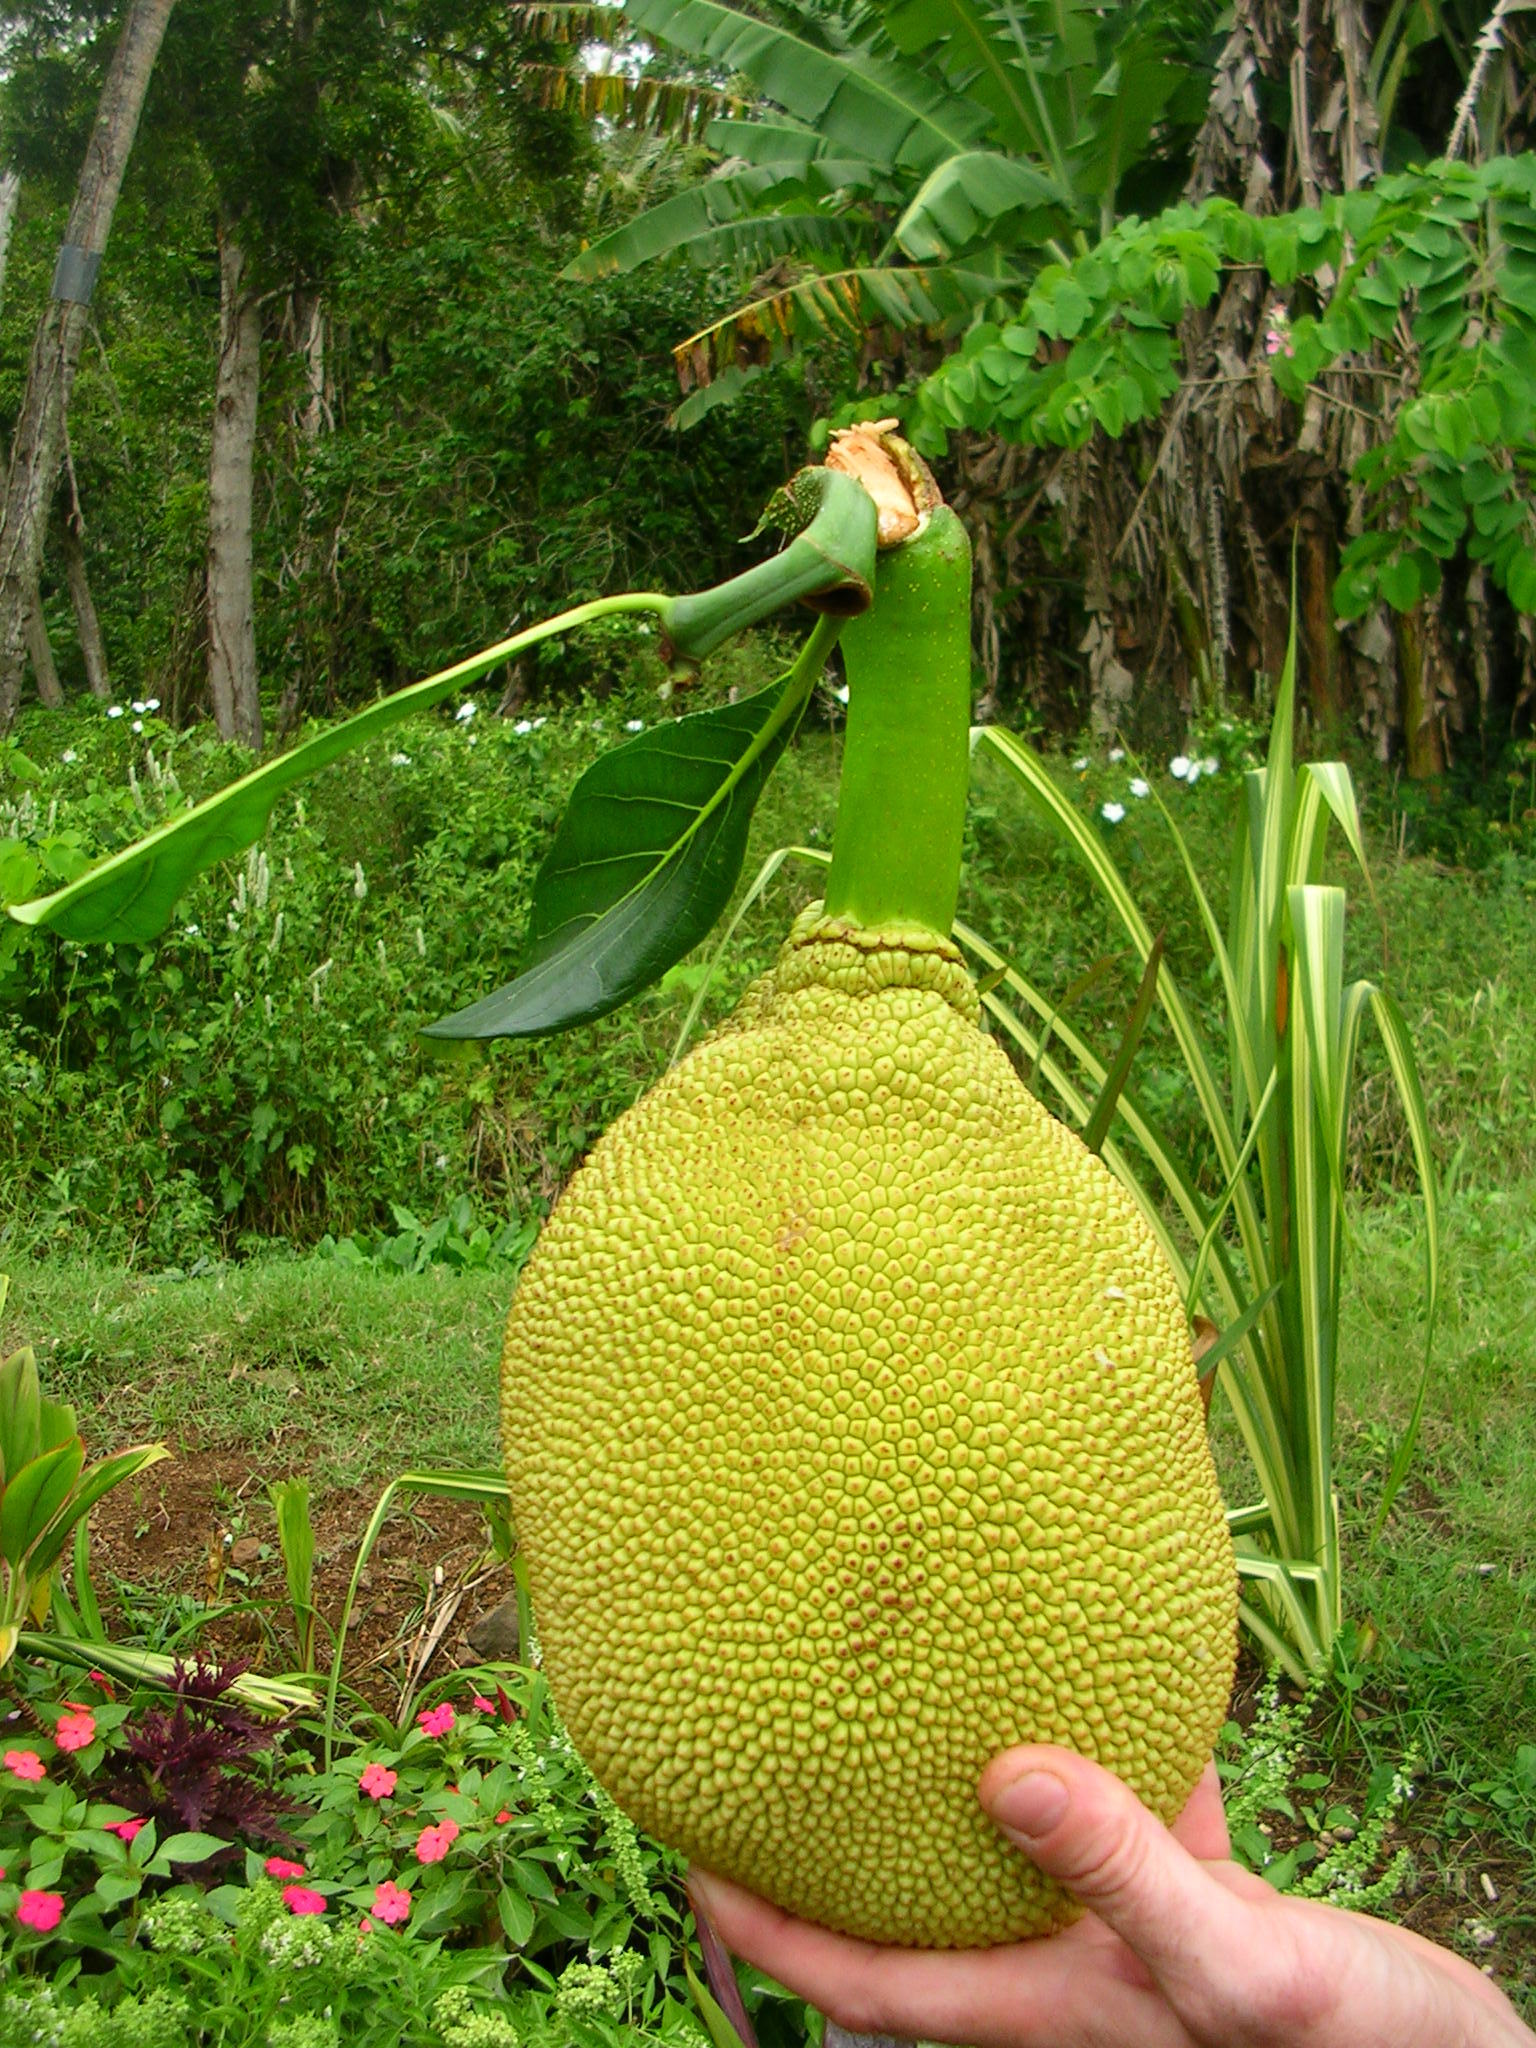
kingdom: Plantae
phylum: Tracheophyta
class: Magnoliopsida
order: Rosales
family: Moraceae
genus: Artocarpus
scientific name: Artocarpus altilis
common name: Breadfruit
